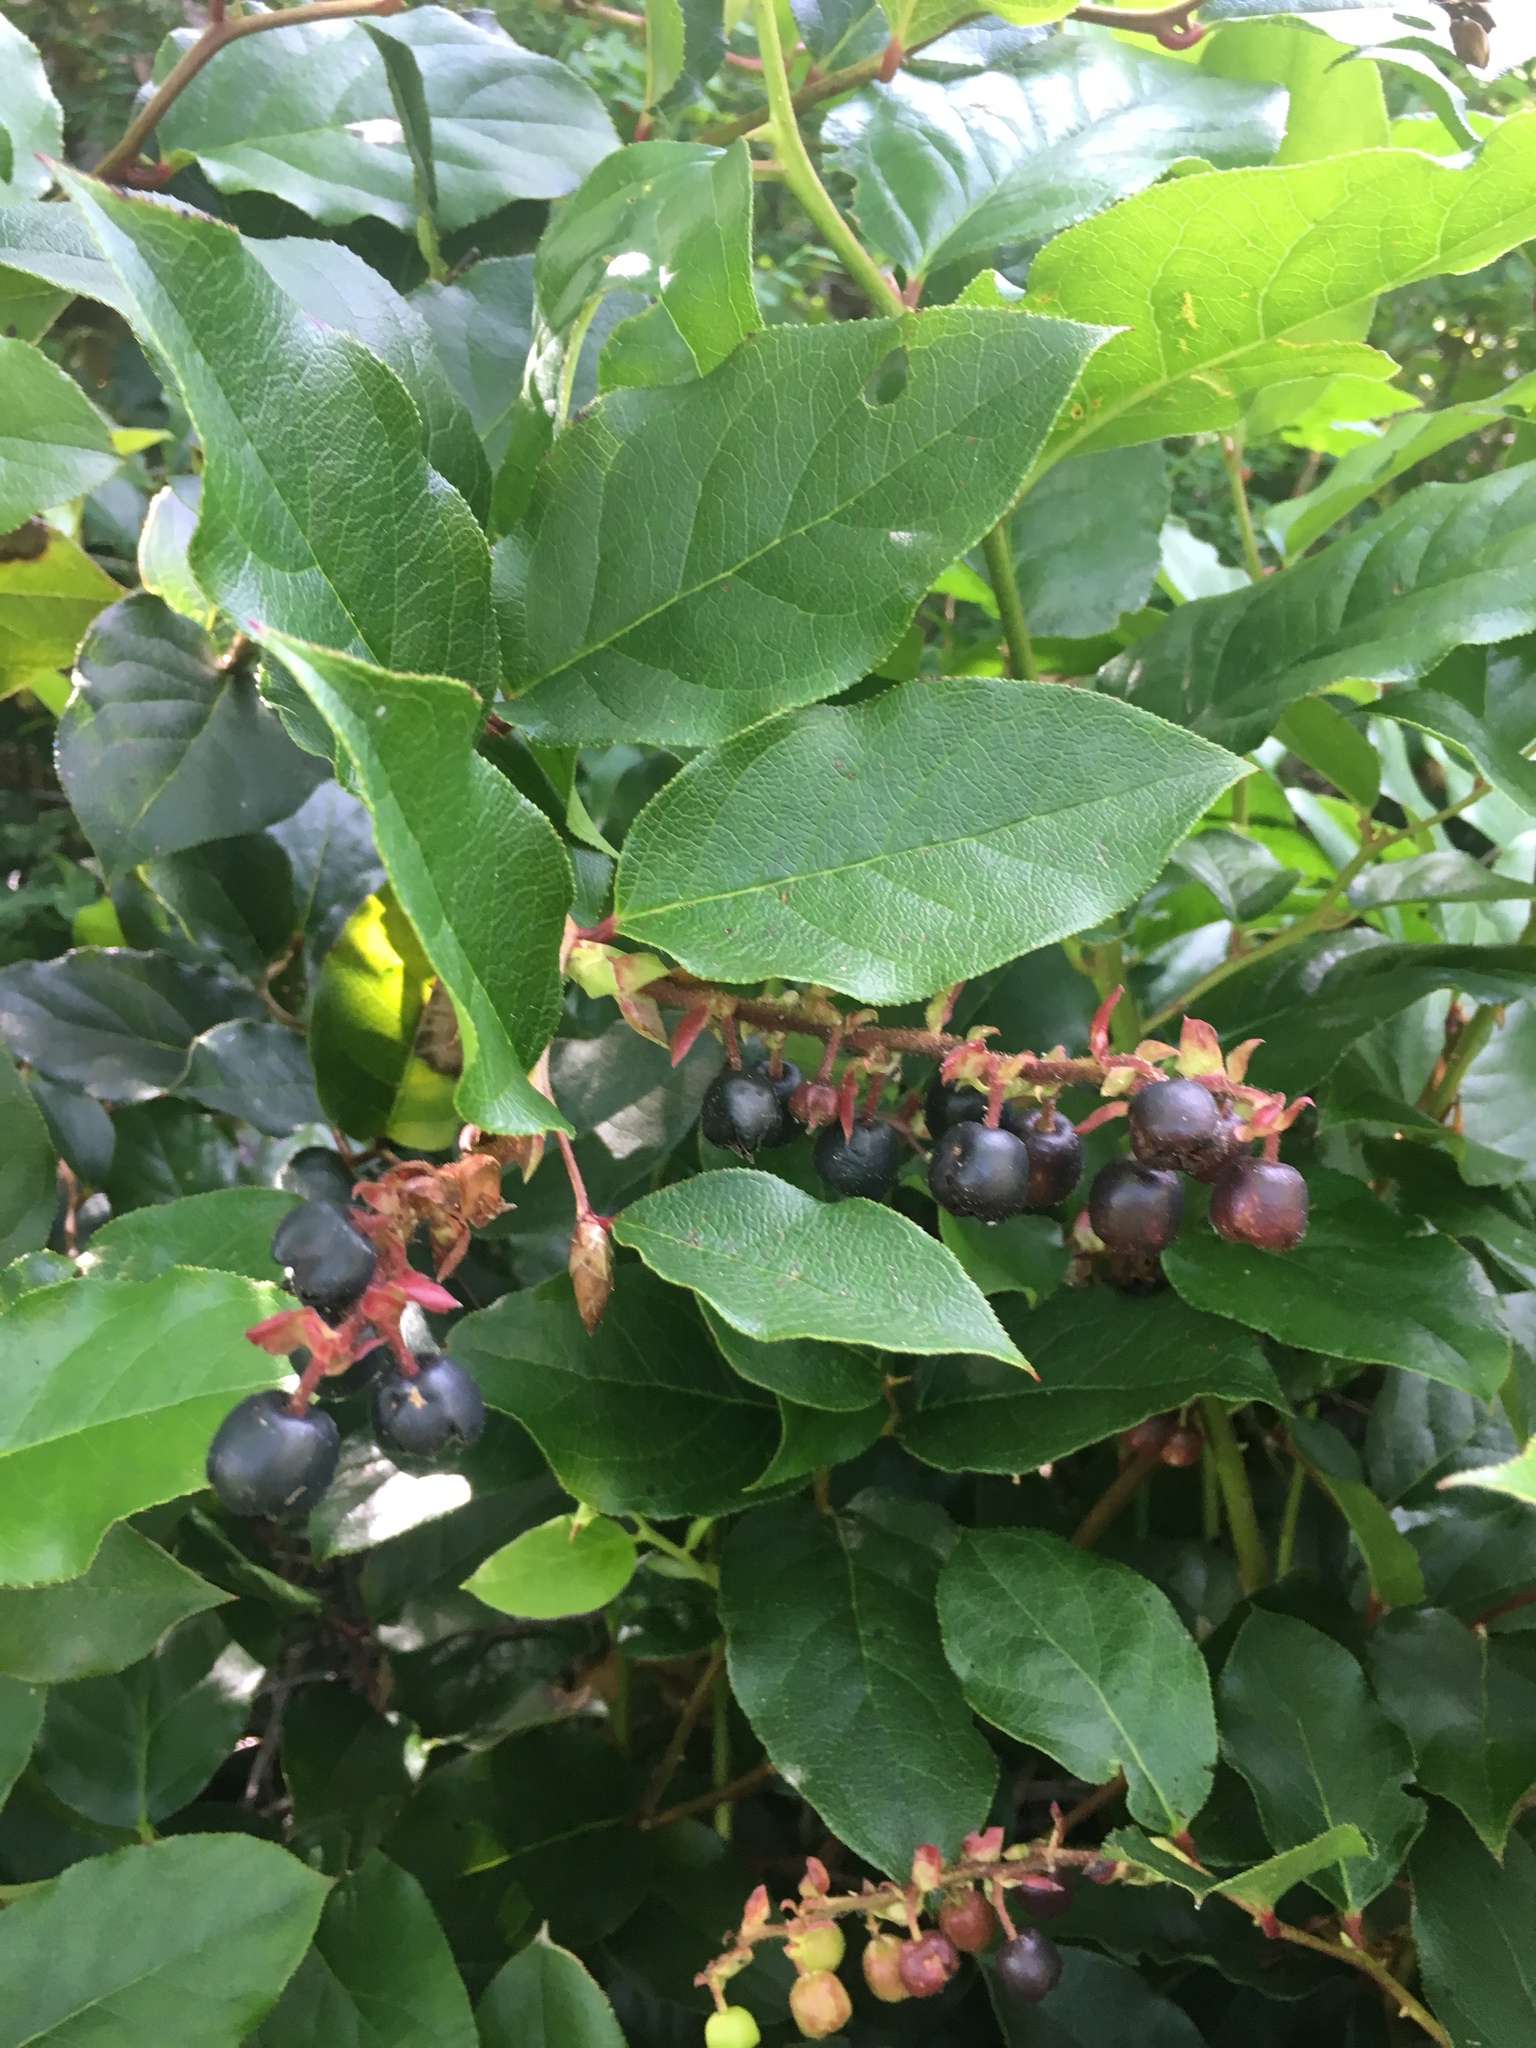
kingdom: Plantae
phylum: Tracheophyta
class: Magnoliopsida
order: Ericales
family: Ericaceae
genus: Gaultheria
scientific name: Gaultheria shallon
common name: Shallon
